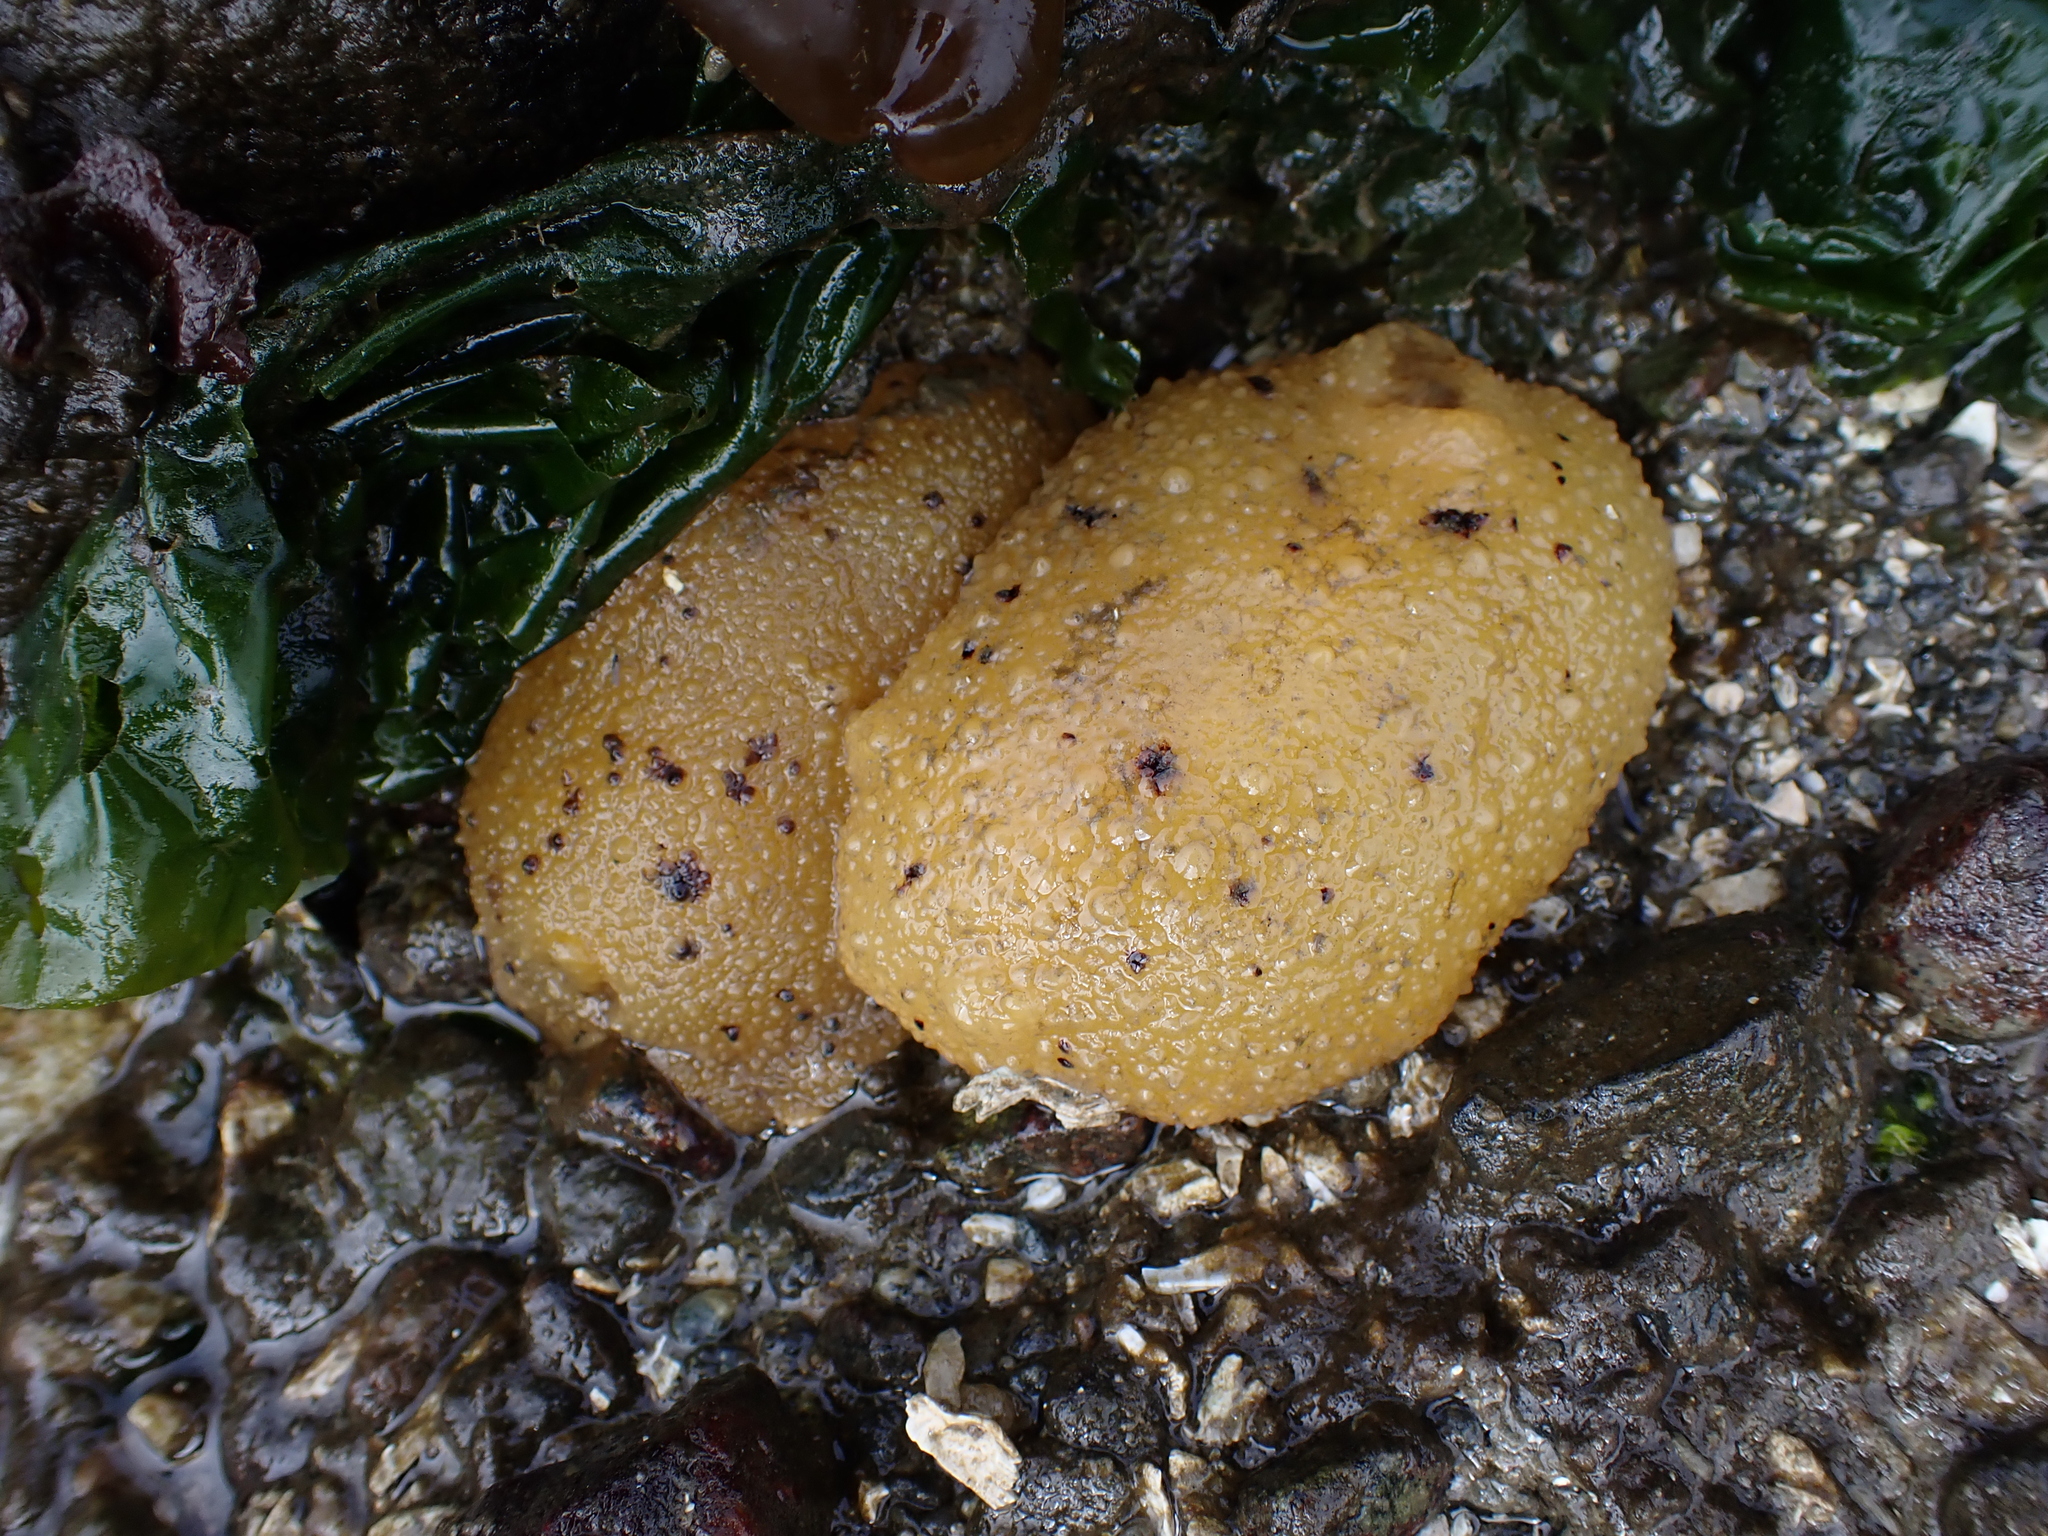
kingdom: Animalia
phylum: Mollusca
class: Gastropoda
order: Nudibranchia
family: Dorididae
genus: Doris
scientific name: Doris montereyensis
